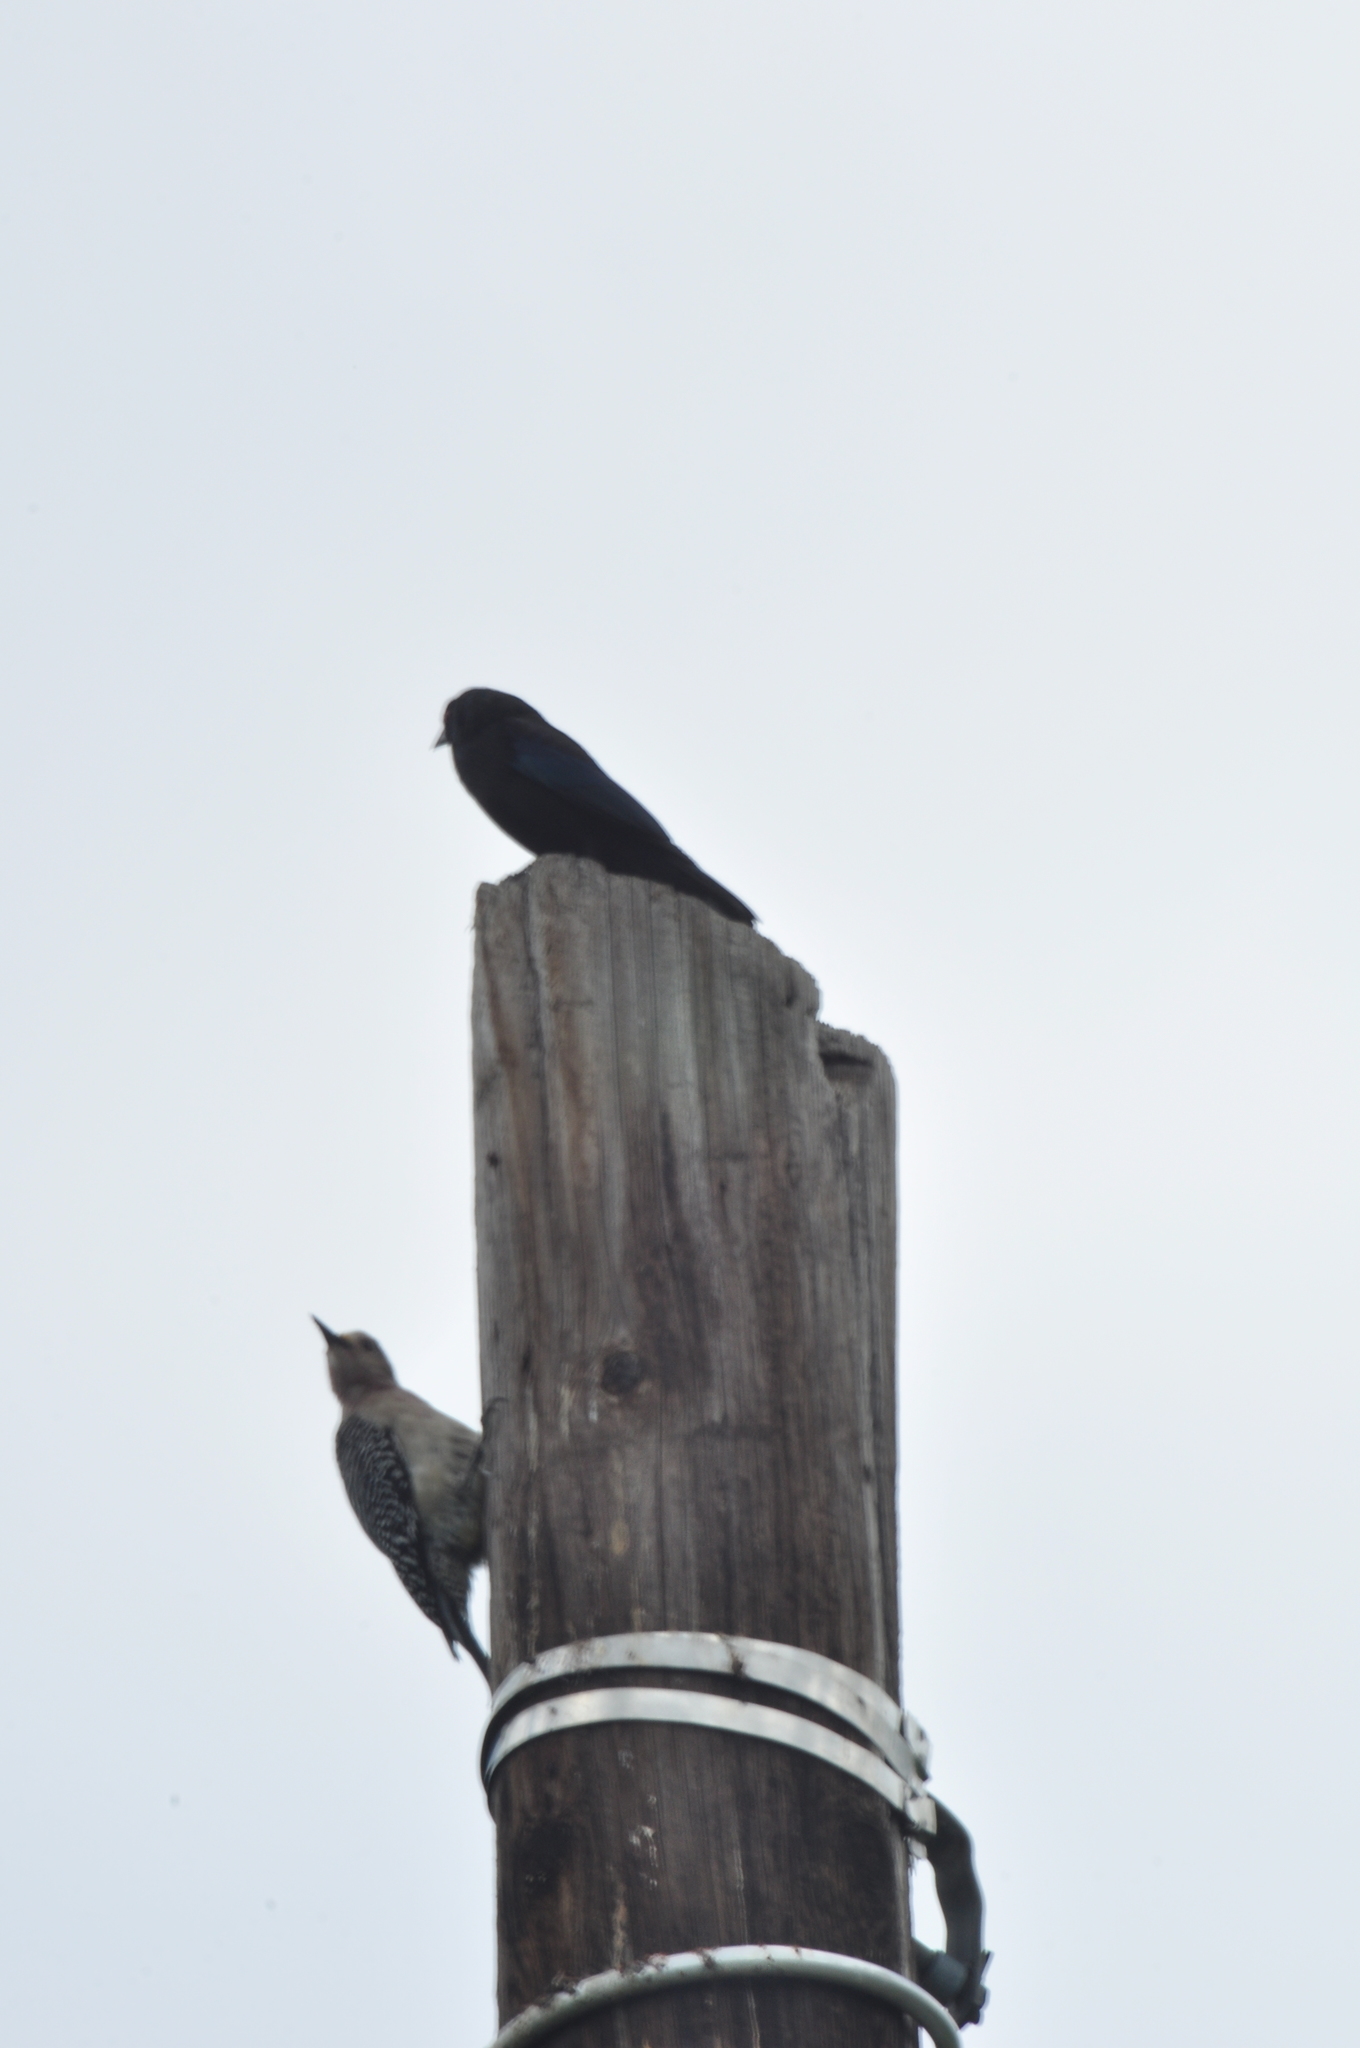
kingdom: Animalia
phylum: Chordata
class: Aves
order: Passeriformes
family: Icteridae
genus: Molothrus
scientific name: Molothrus aeneus
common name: Bronzed cowbird
